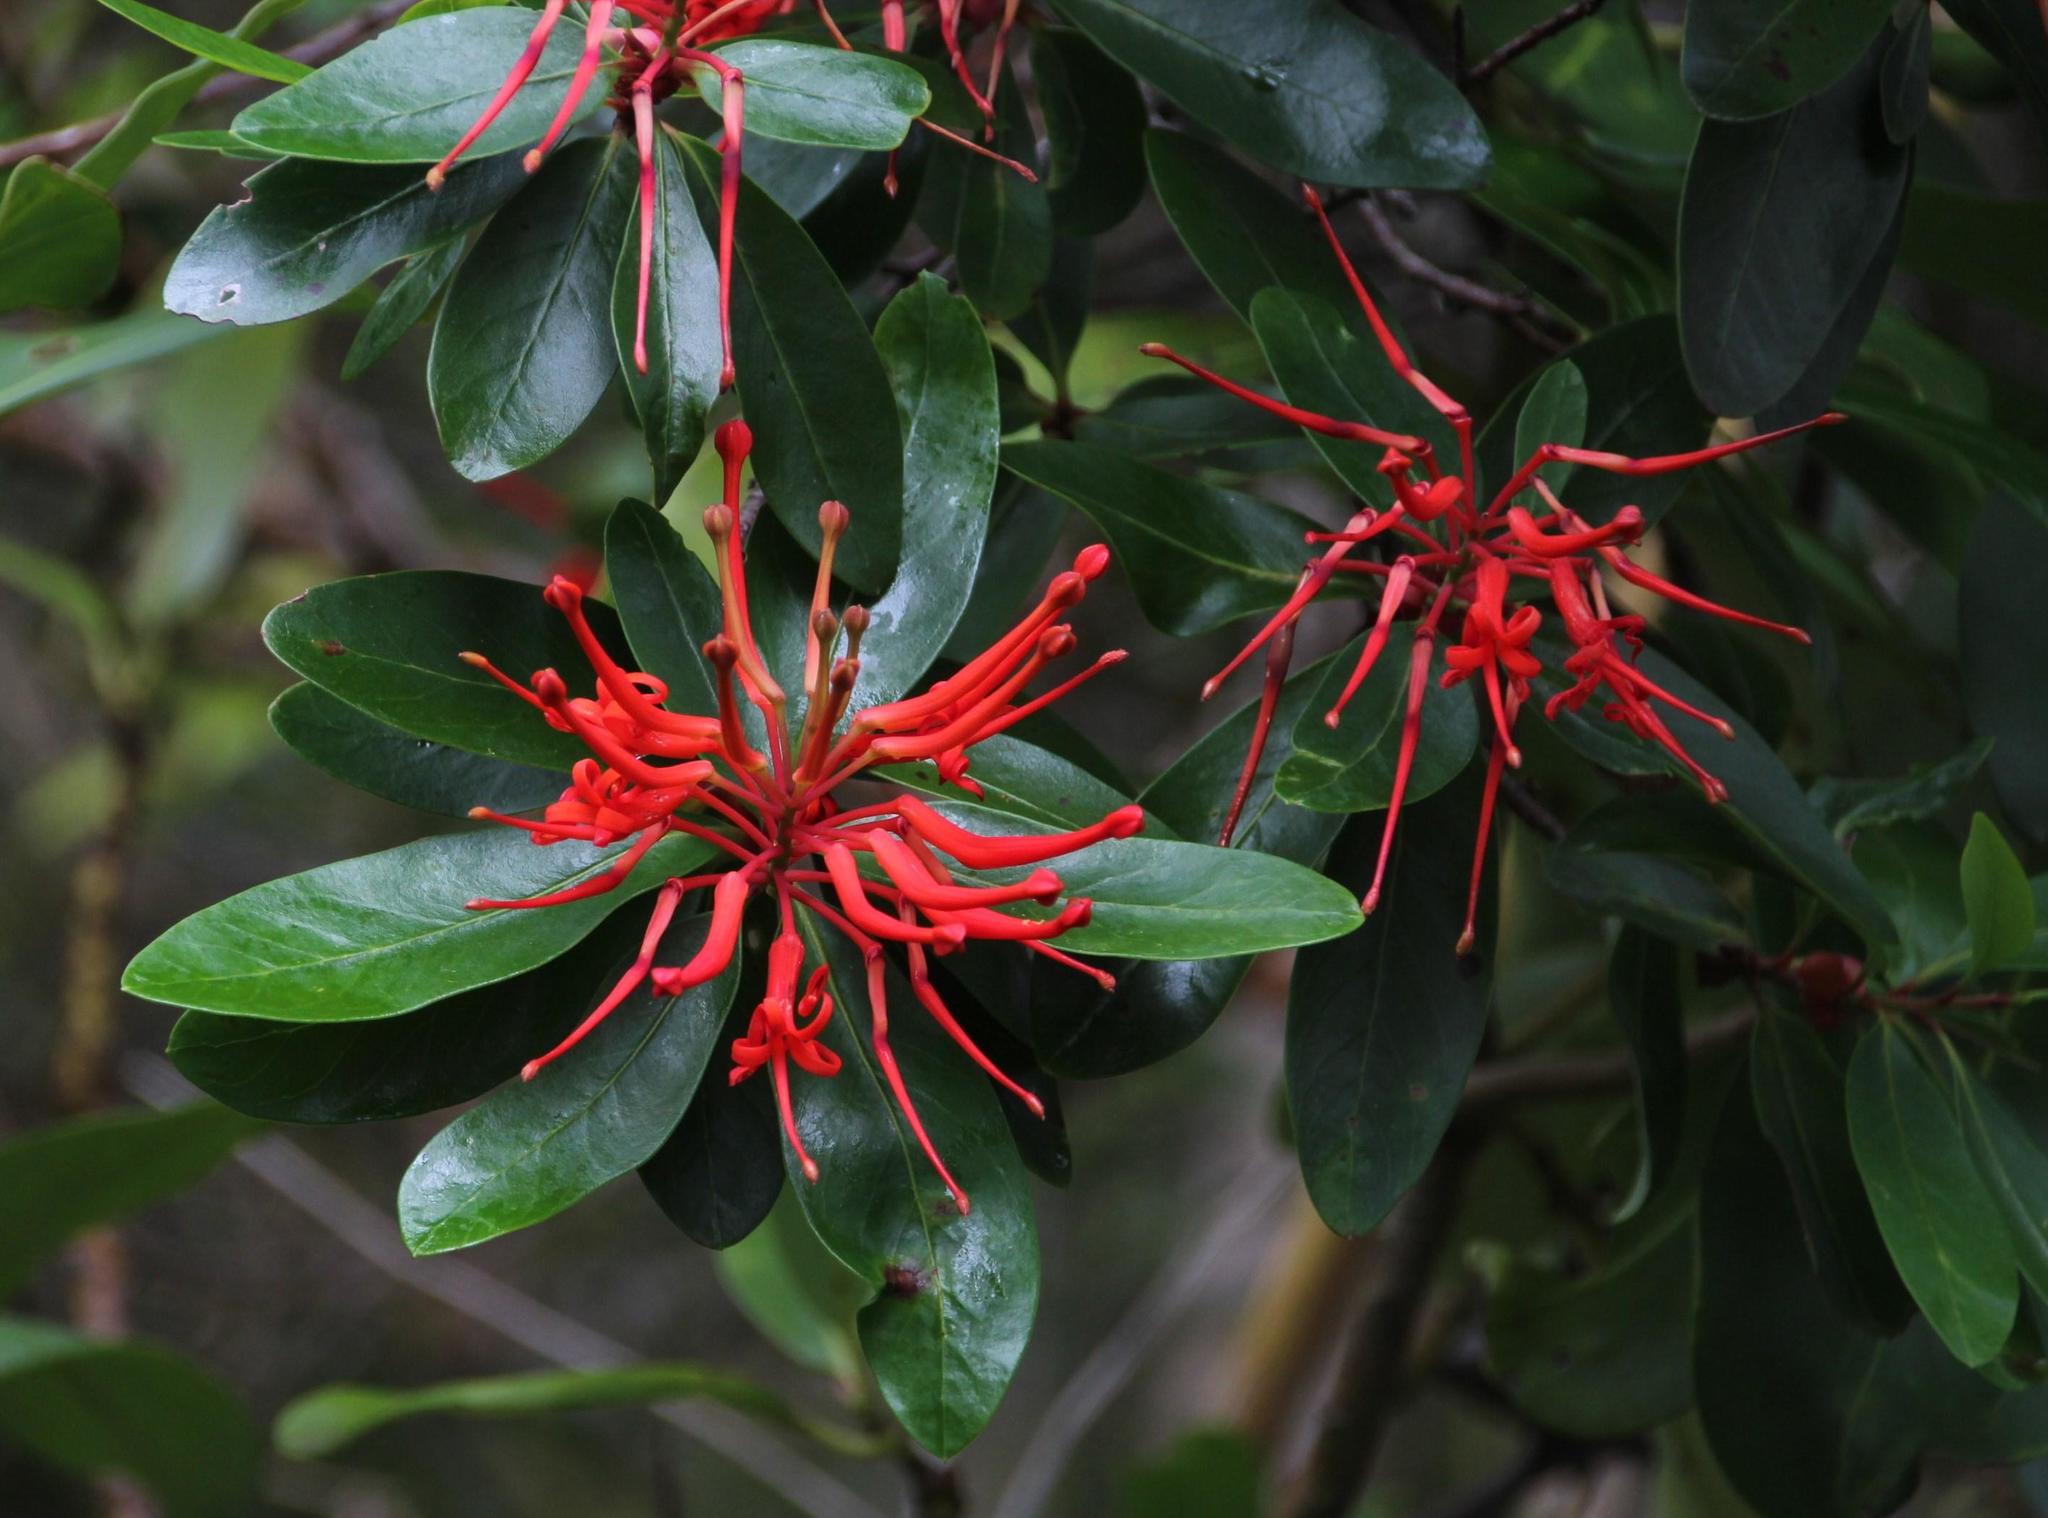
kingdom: Plantae
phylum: Tracheophyta
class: Magnoliopsida
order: Proteales
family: Proteaceae
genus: Embothrium
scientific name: Embothrium coccineum
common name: Chilean firebush
